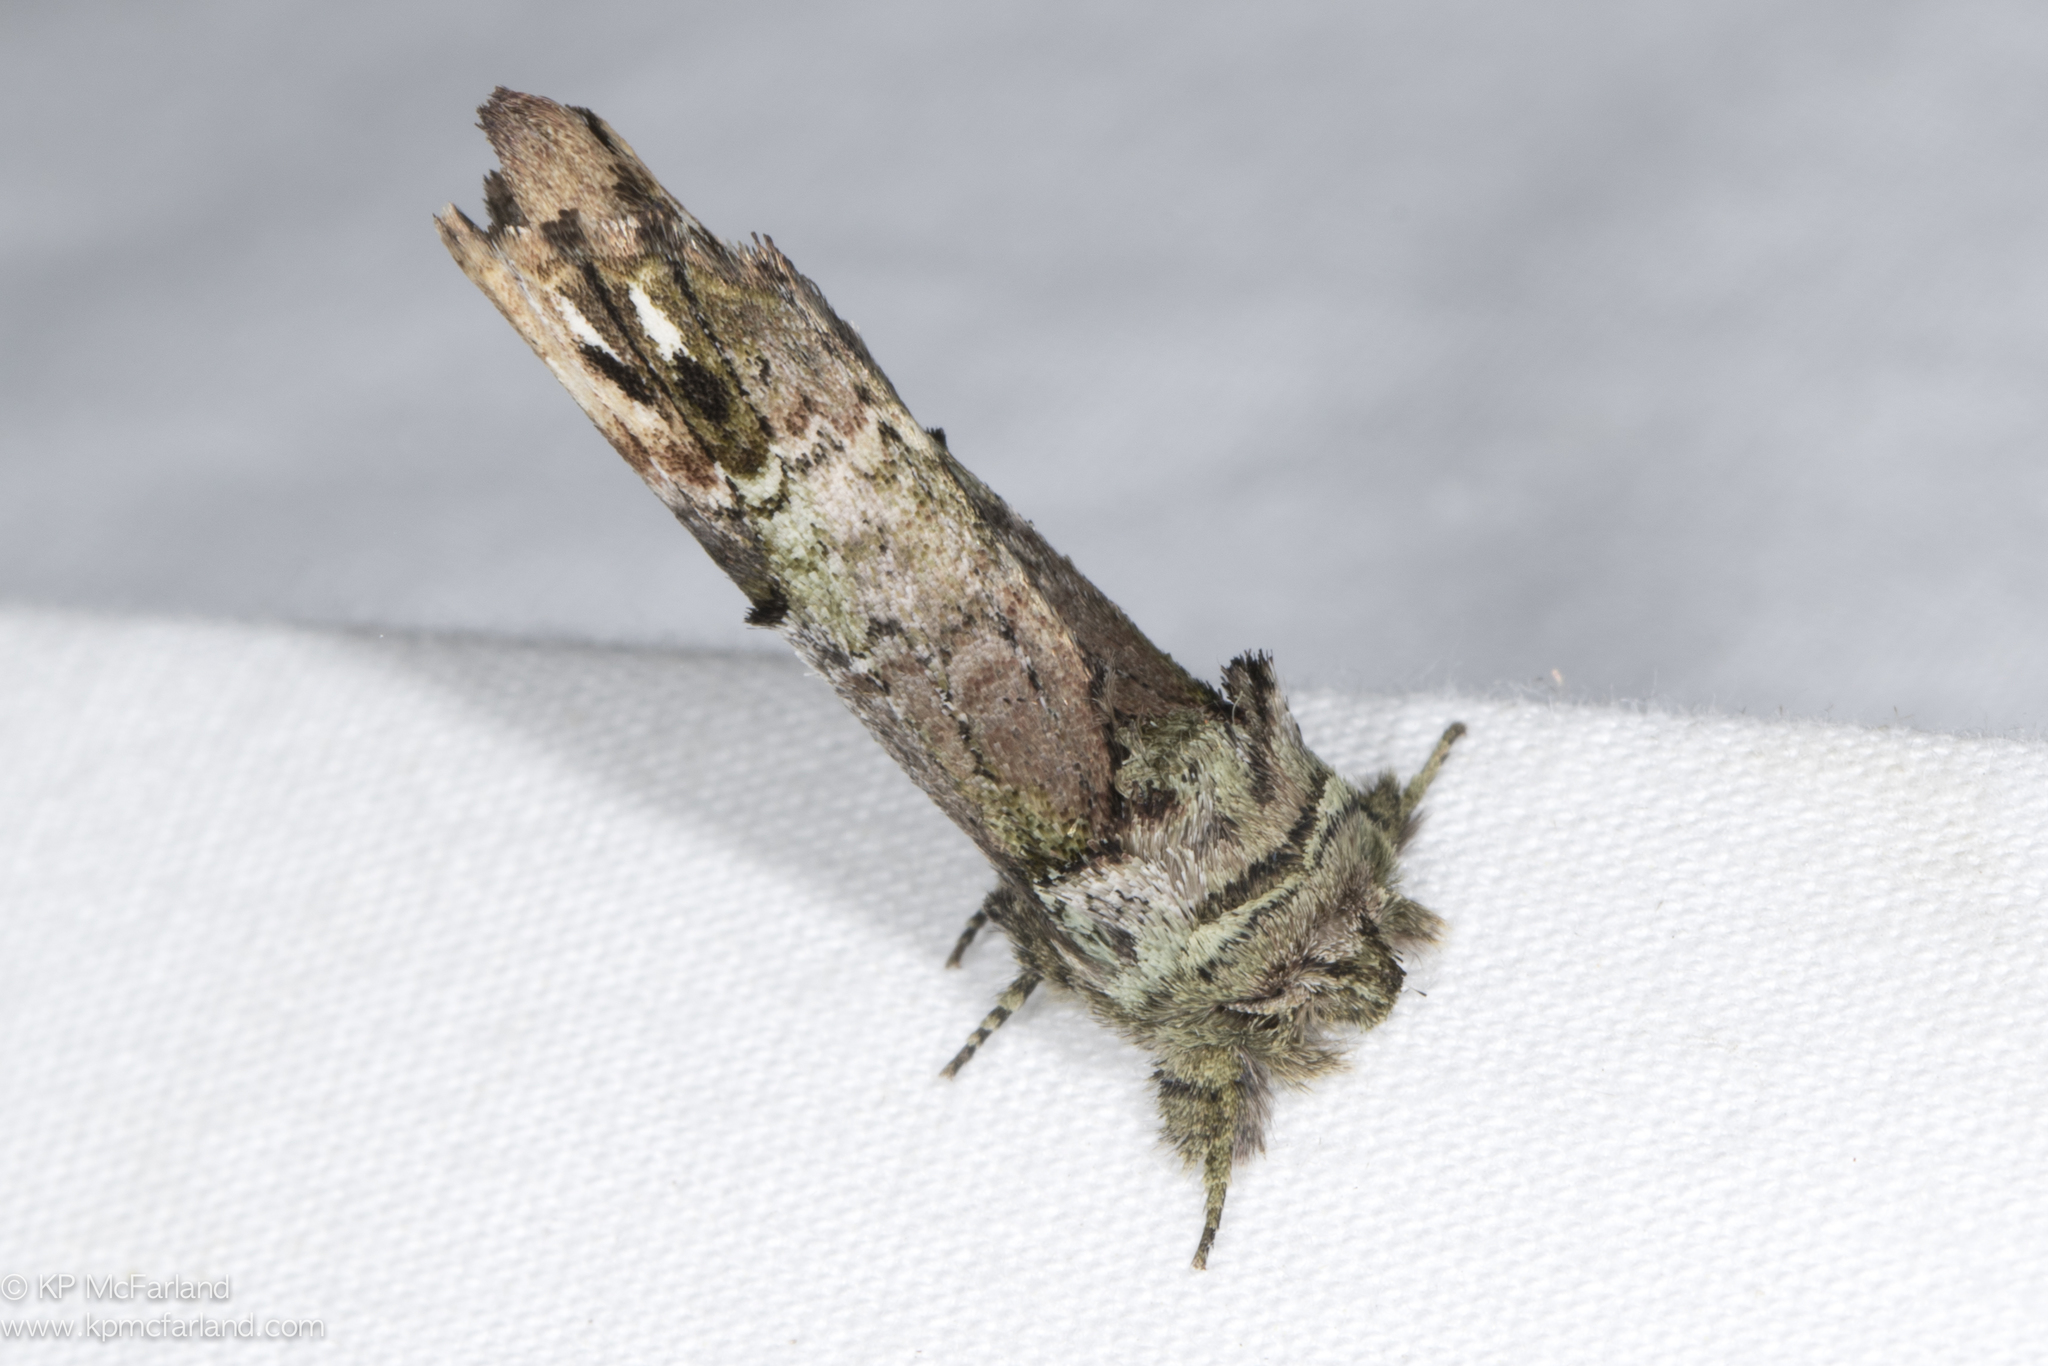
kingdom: Animalia
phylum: Arthropoda
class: Insecta
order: Lepidoptera
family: Notodontidae
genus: Schizura
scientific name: Schizura
